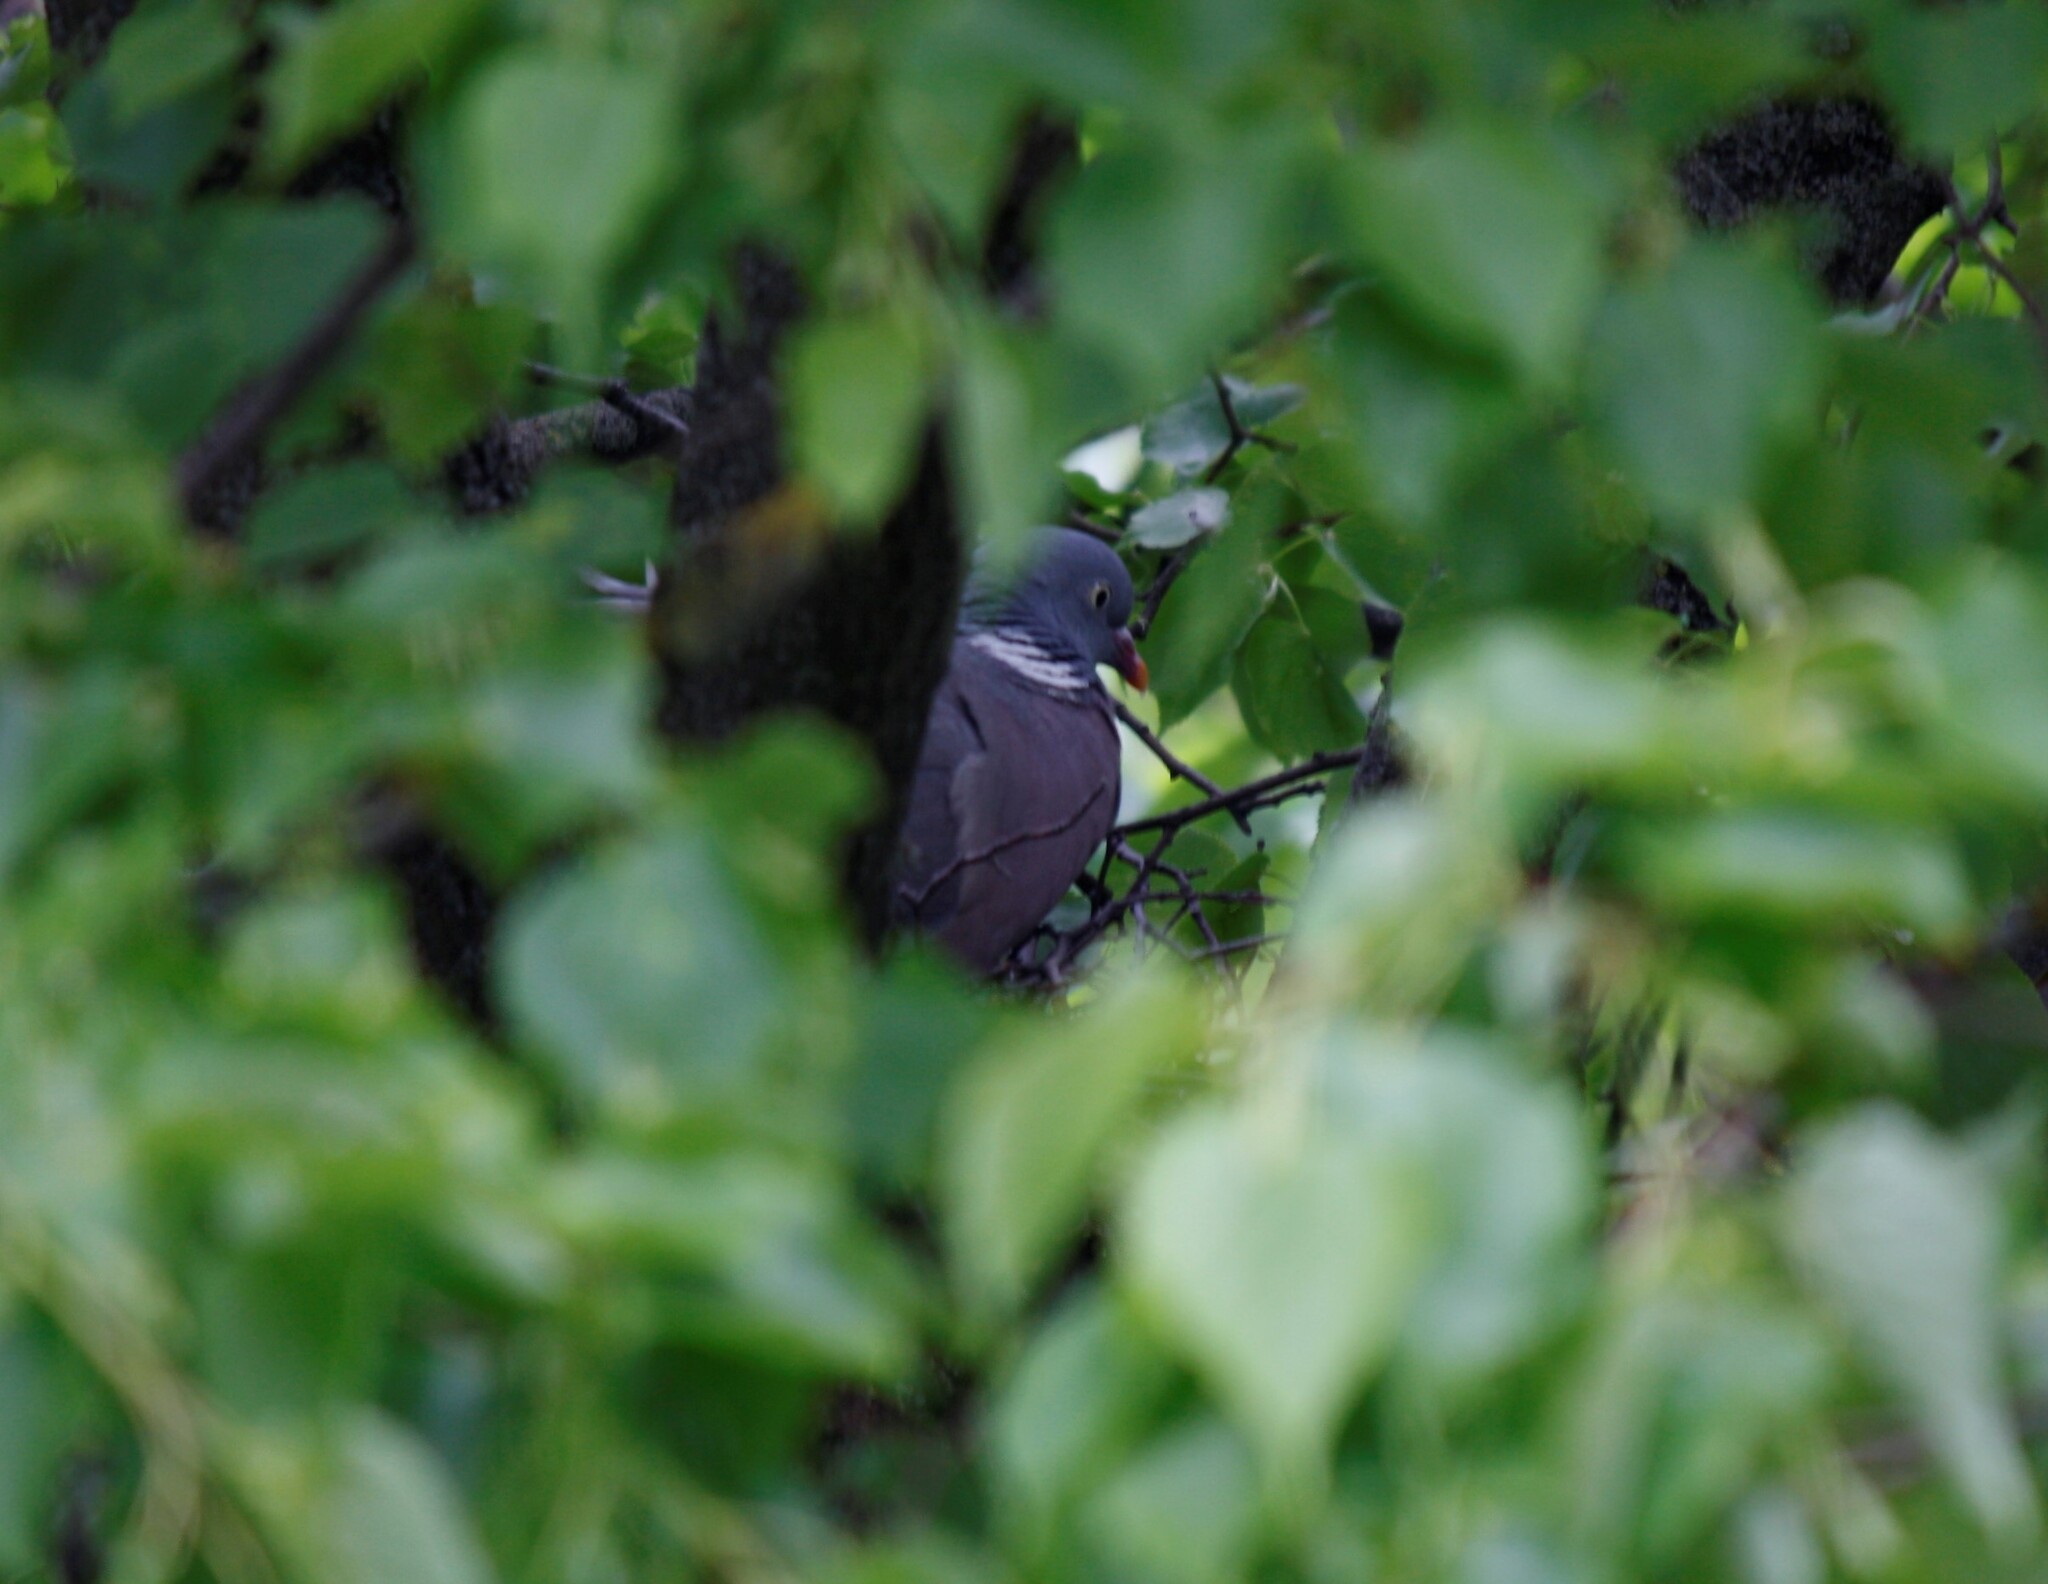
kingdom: Animalia
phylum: Chordata
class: Aves
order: Columbiformes
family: Columbidae
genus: Columba
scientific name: Columba palumbus
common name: Common wood pigeon
